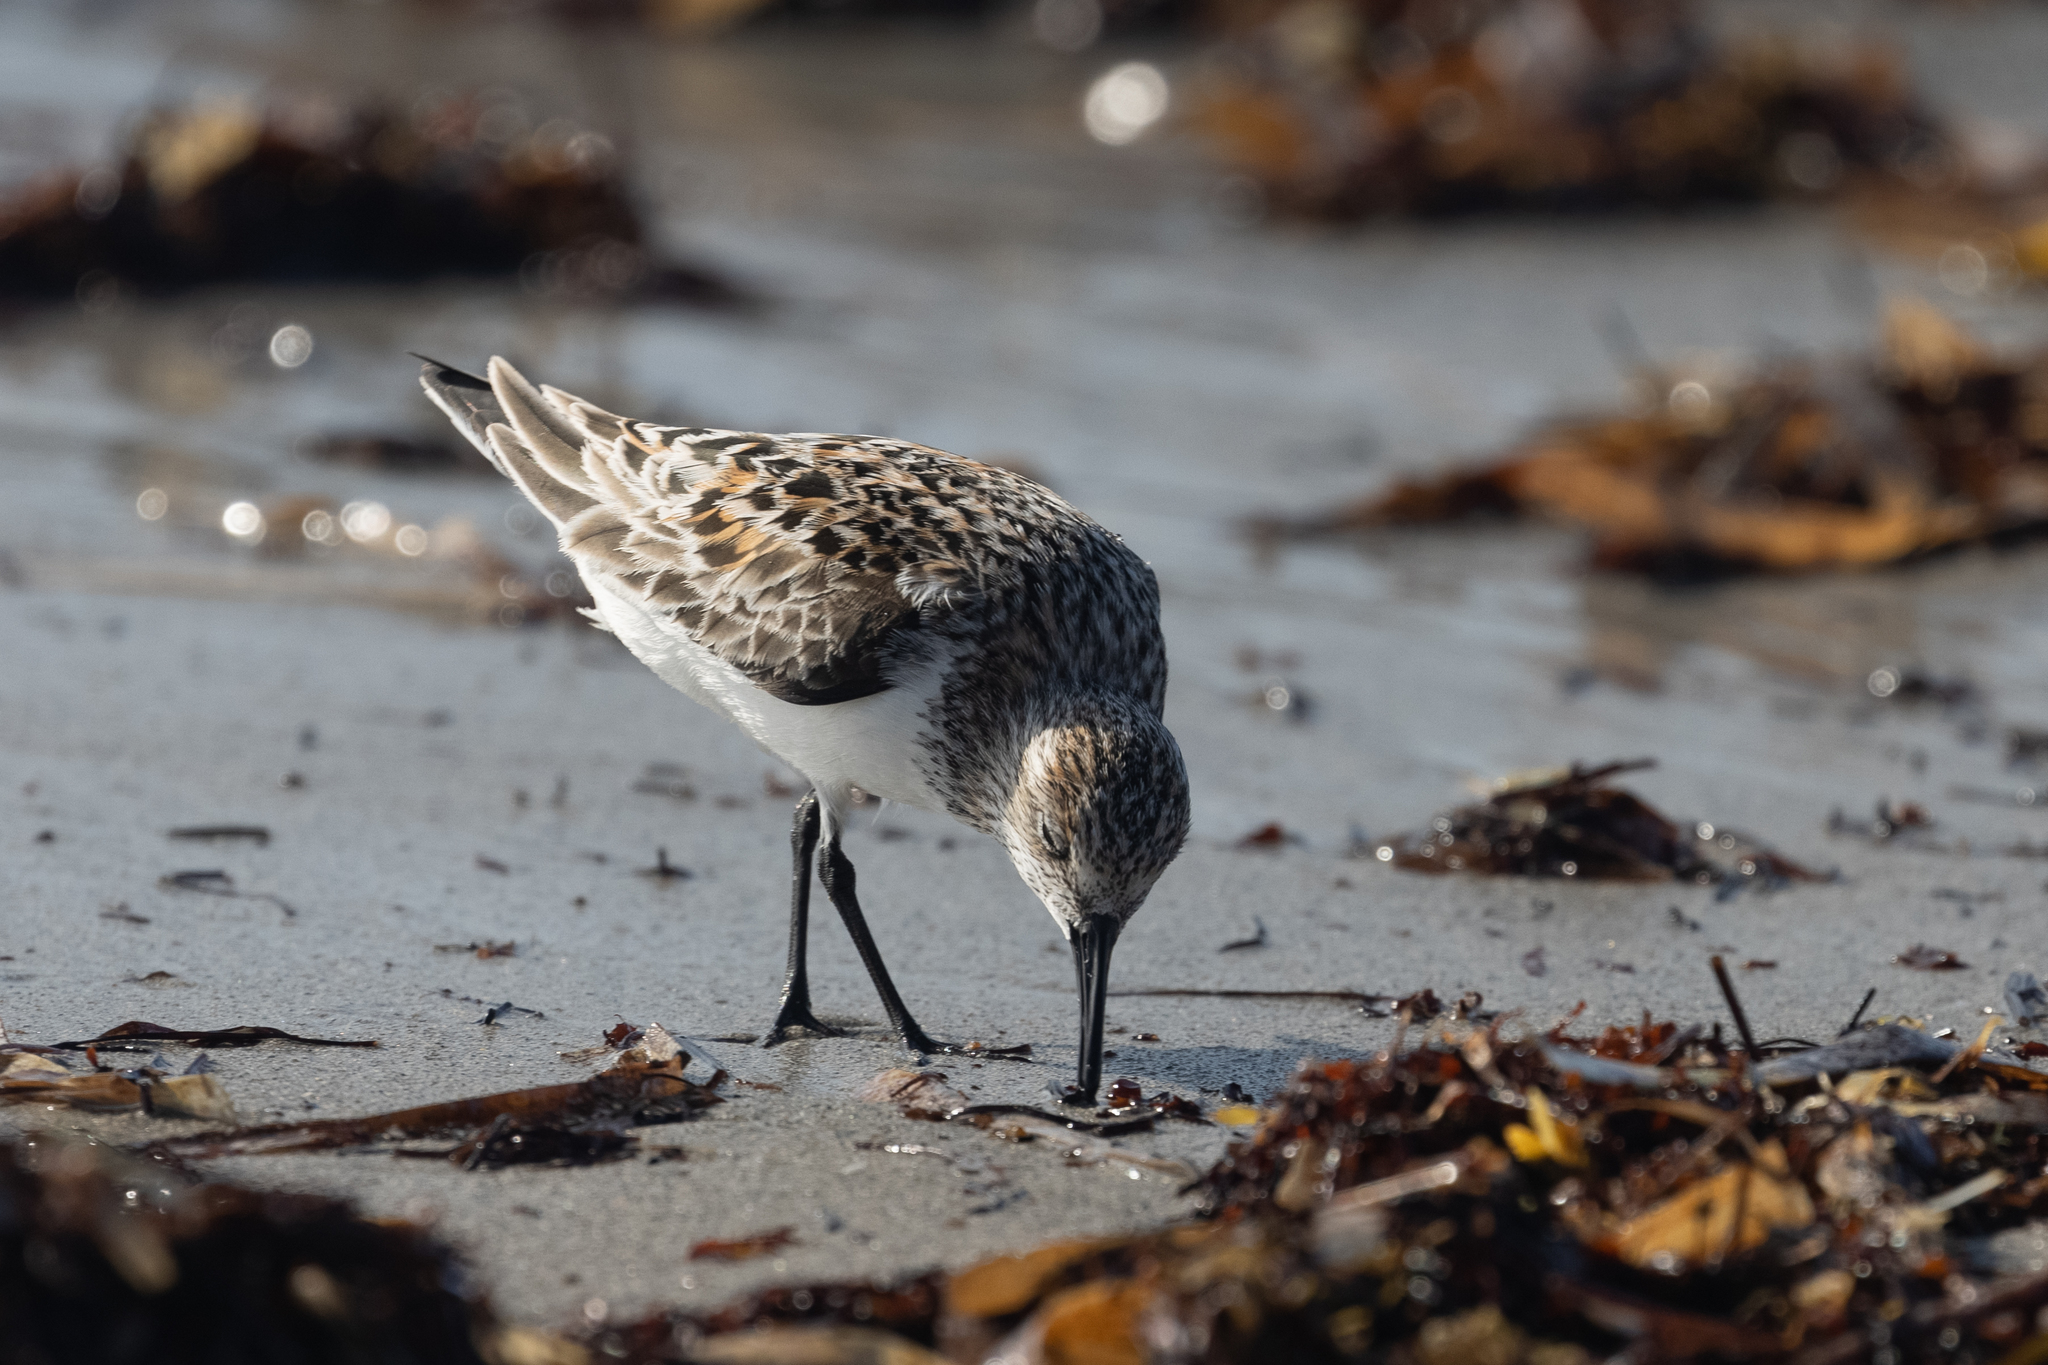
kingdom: Animalia
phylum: Chordata
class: Aves
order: Charadriiformes
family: Scolopacidae
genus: Calidris
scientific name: Calidris alba
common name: Sanderling
